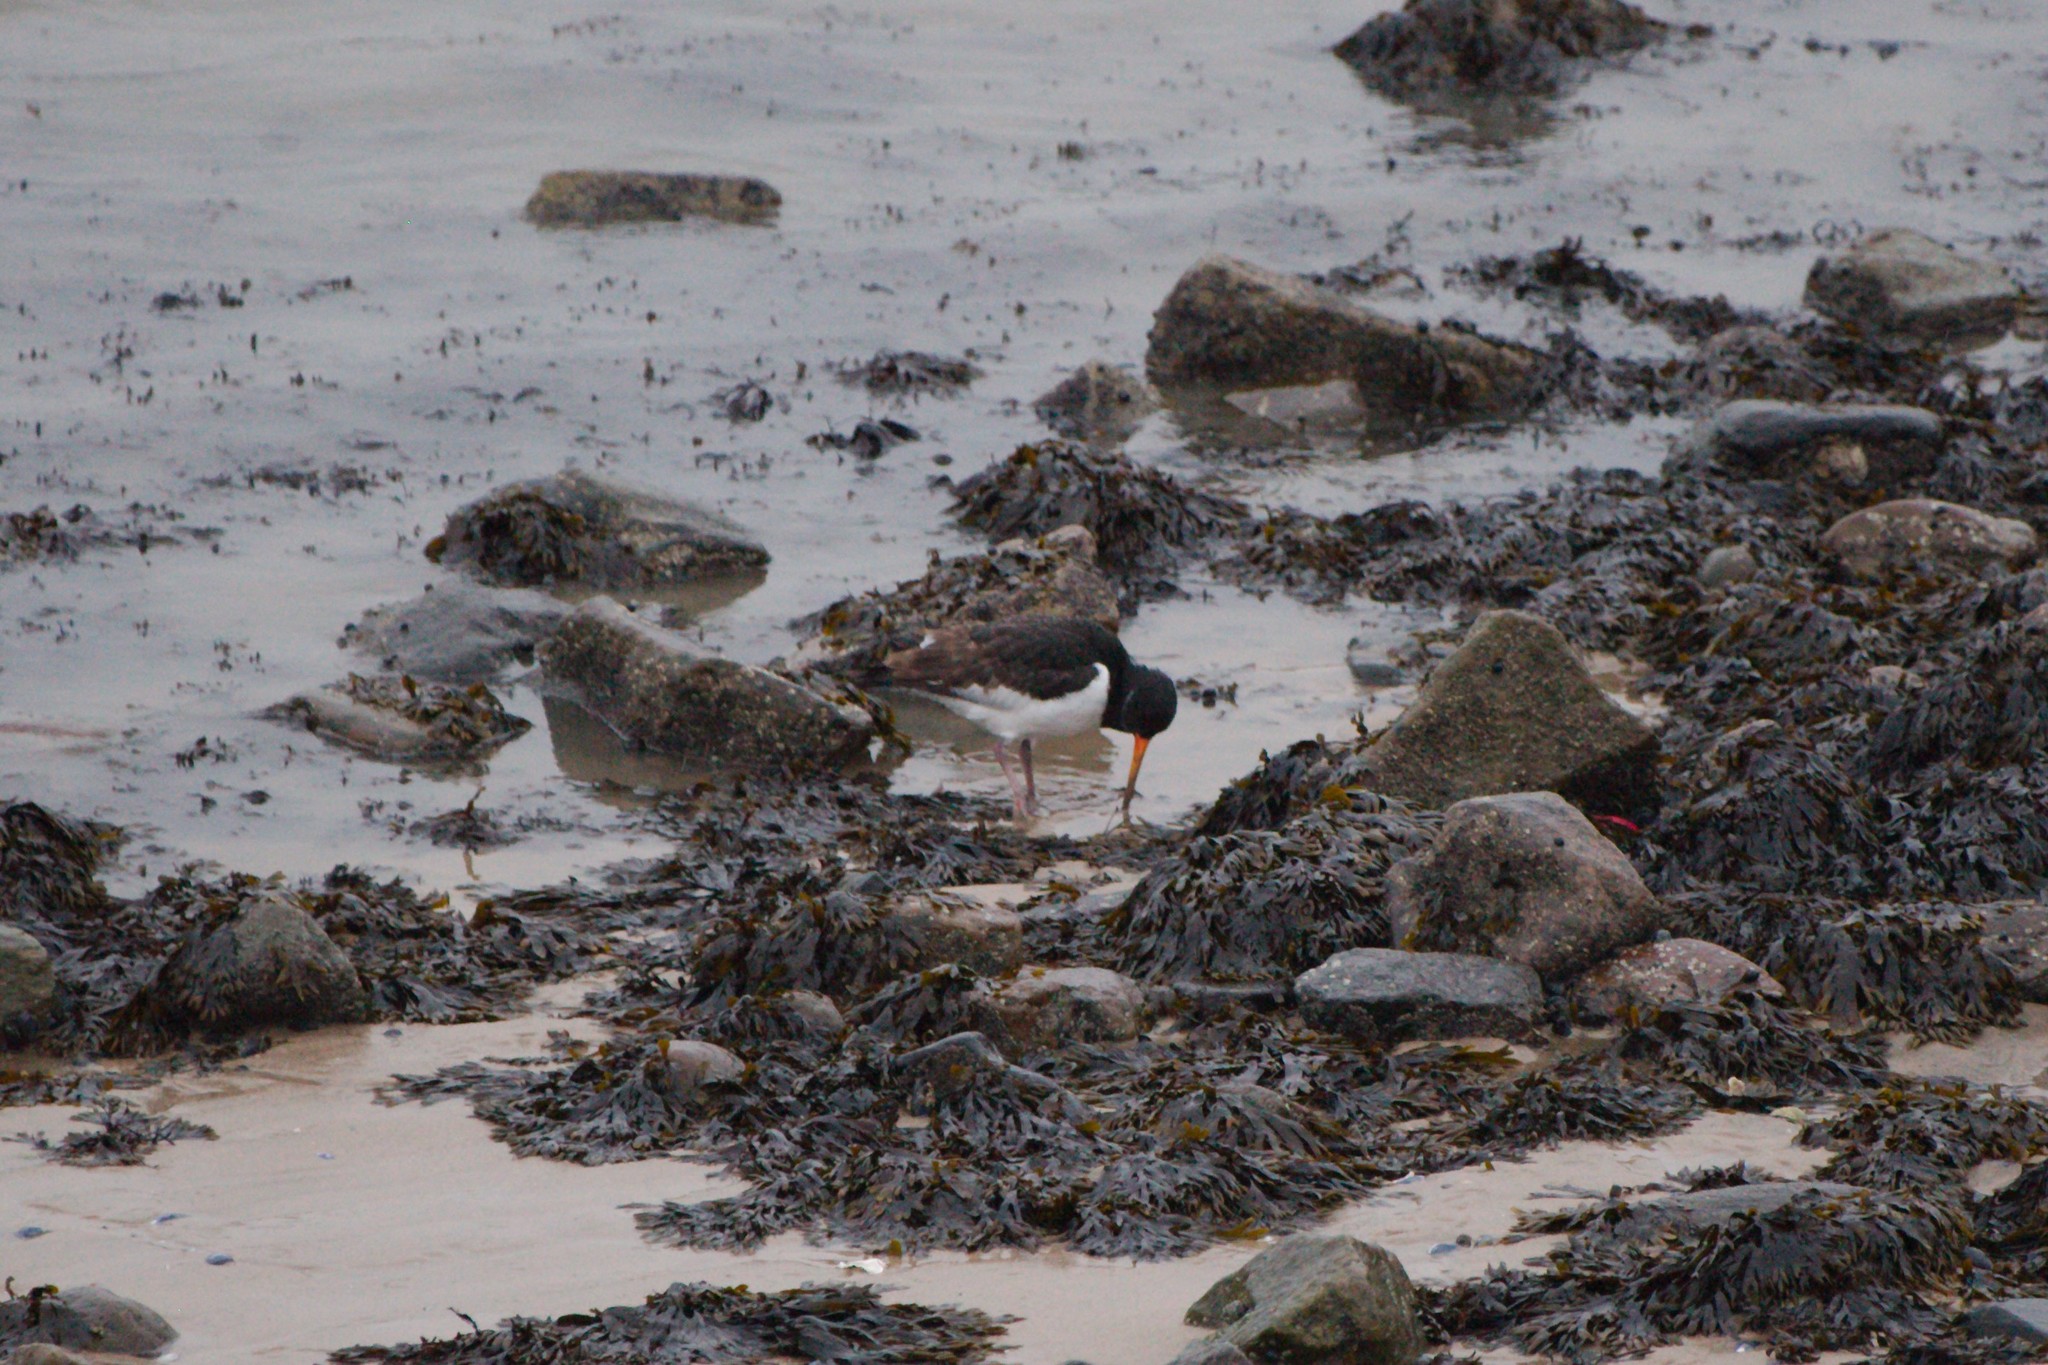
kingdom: Animalia
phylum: Chordata
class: Aves
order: Charadriiformes
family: Haematopodidae
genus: Haematopus
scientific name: Haematopus ostralegus
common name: Eurasian oystercatcher
